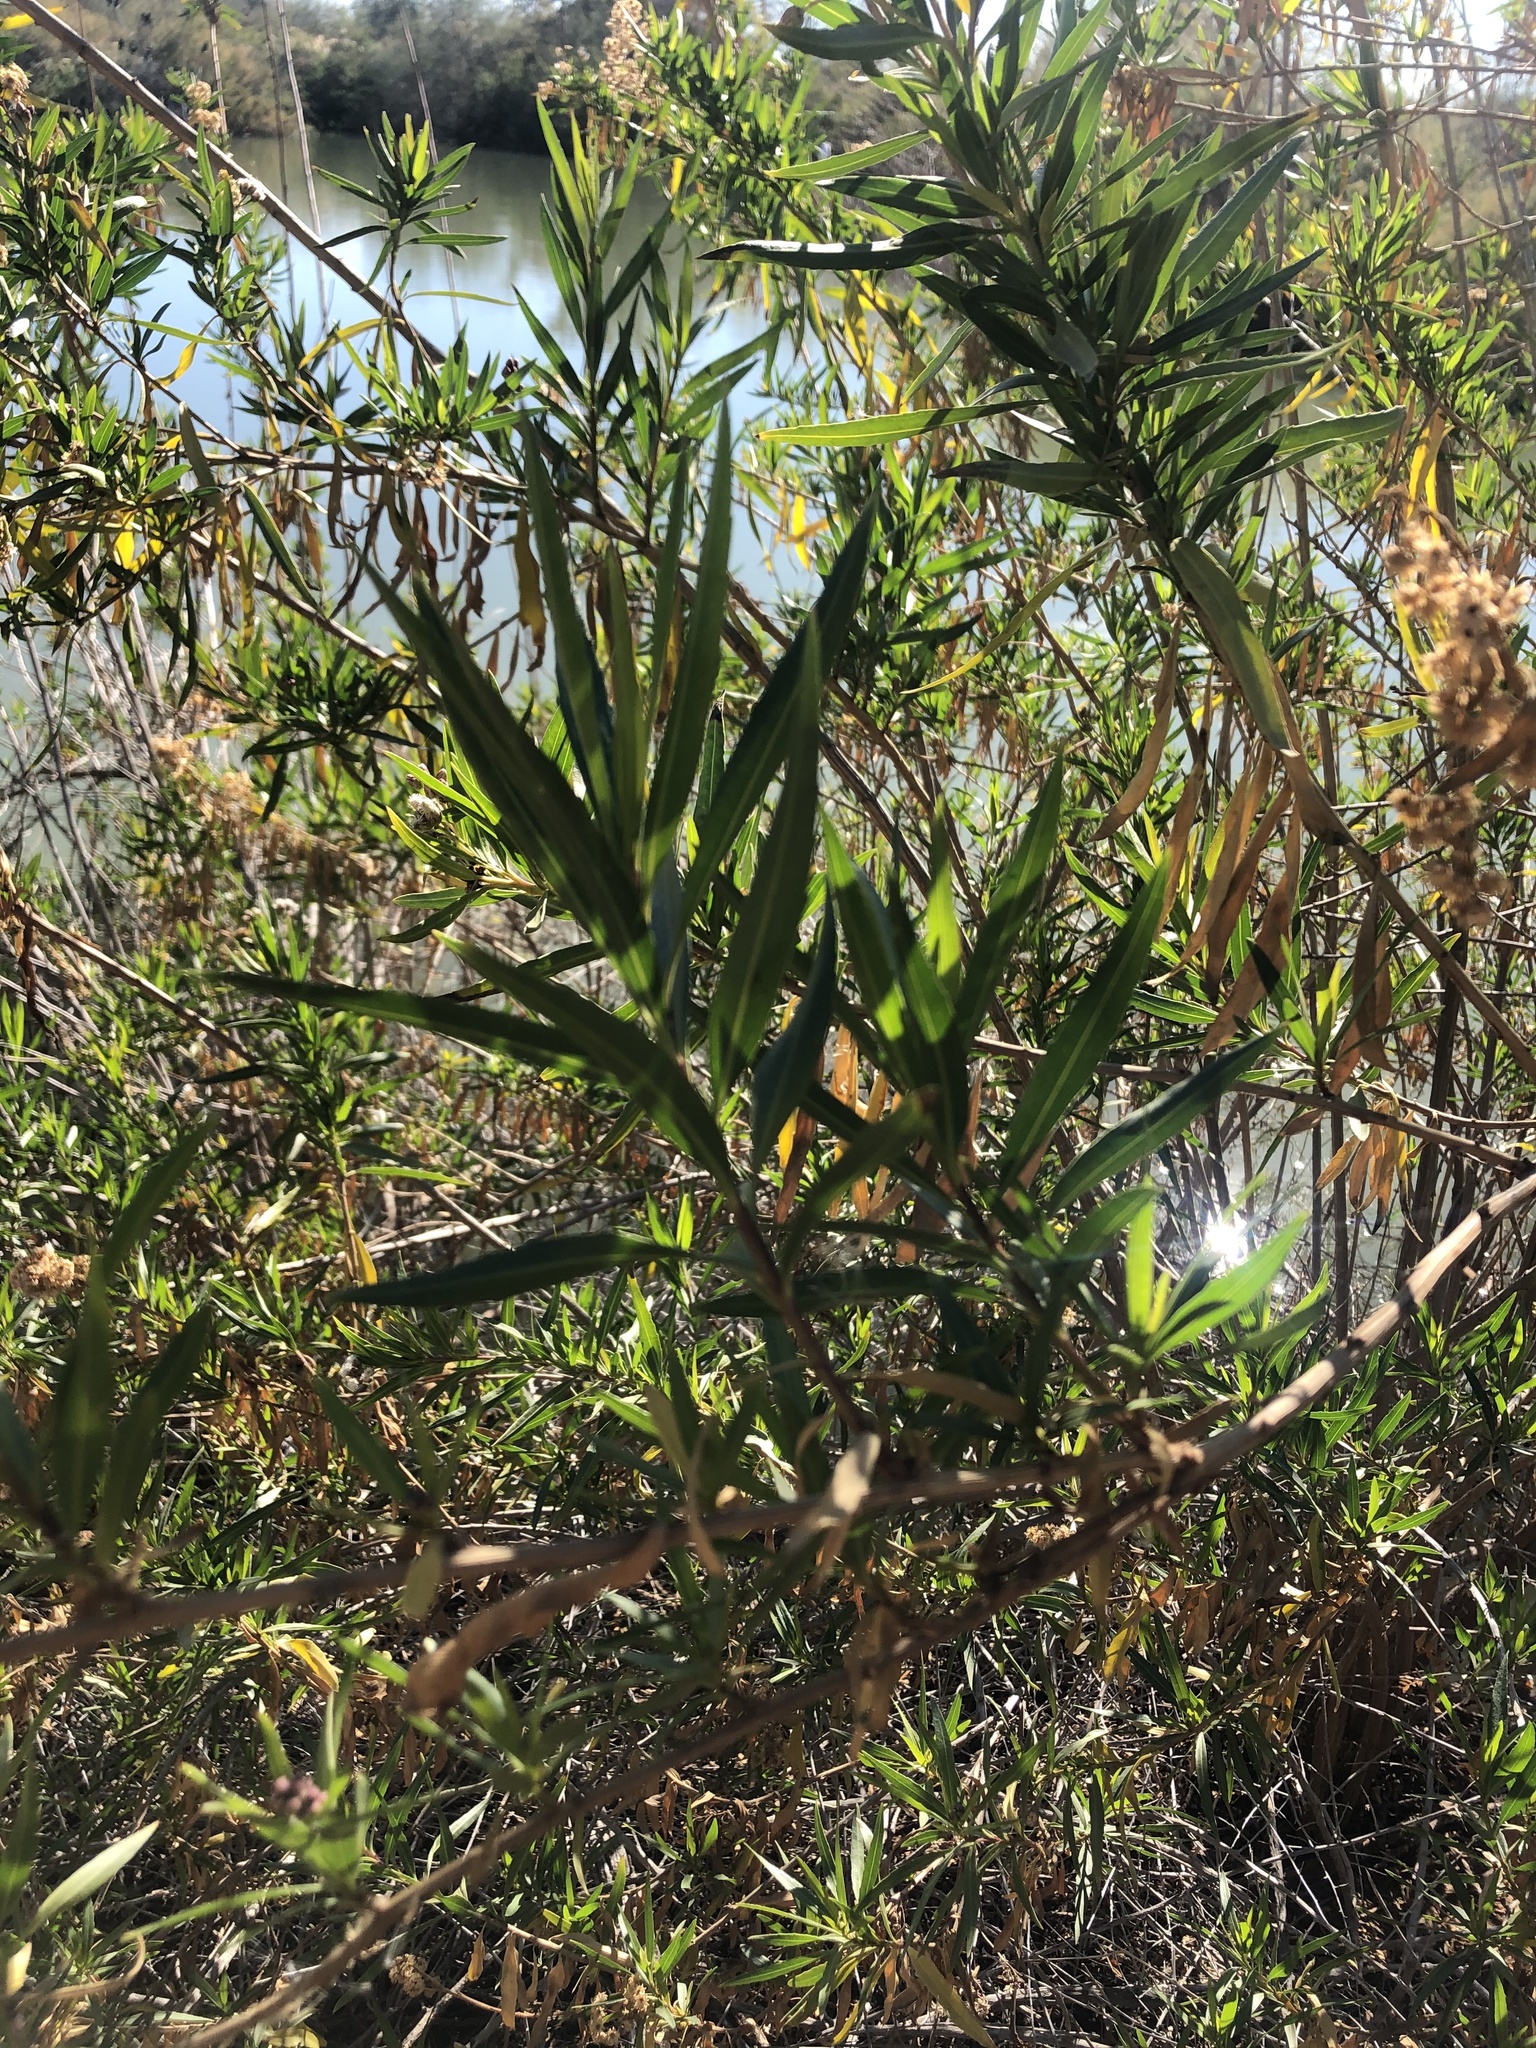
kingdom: Plantae
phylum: Tracheophyta
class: Magnoliopsida
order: Asterales
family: Asteraceae
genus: Baccharis
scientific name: Baccharis salicifolia
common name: Sticky baccharis
